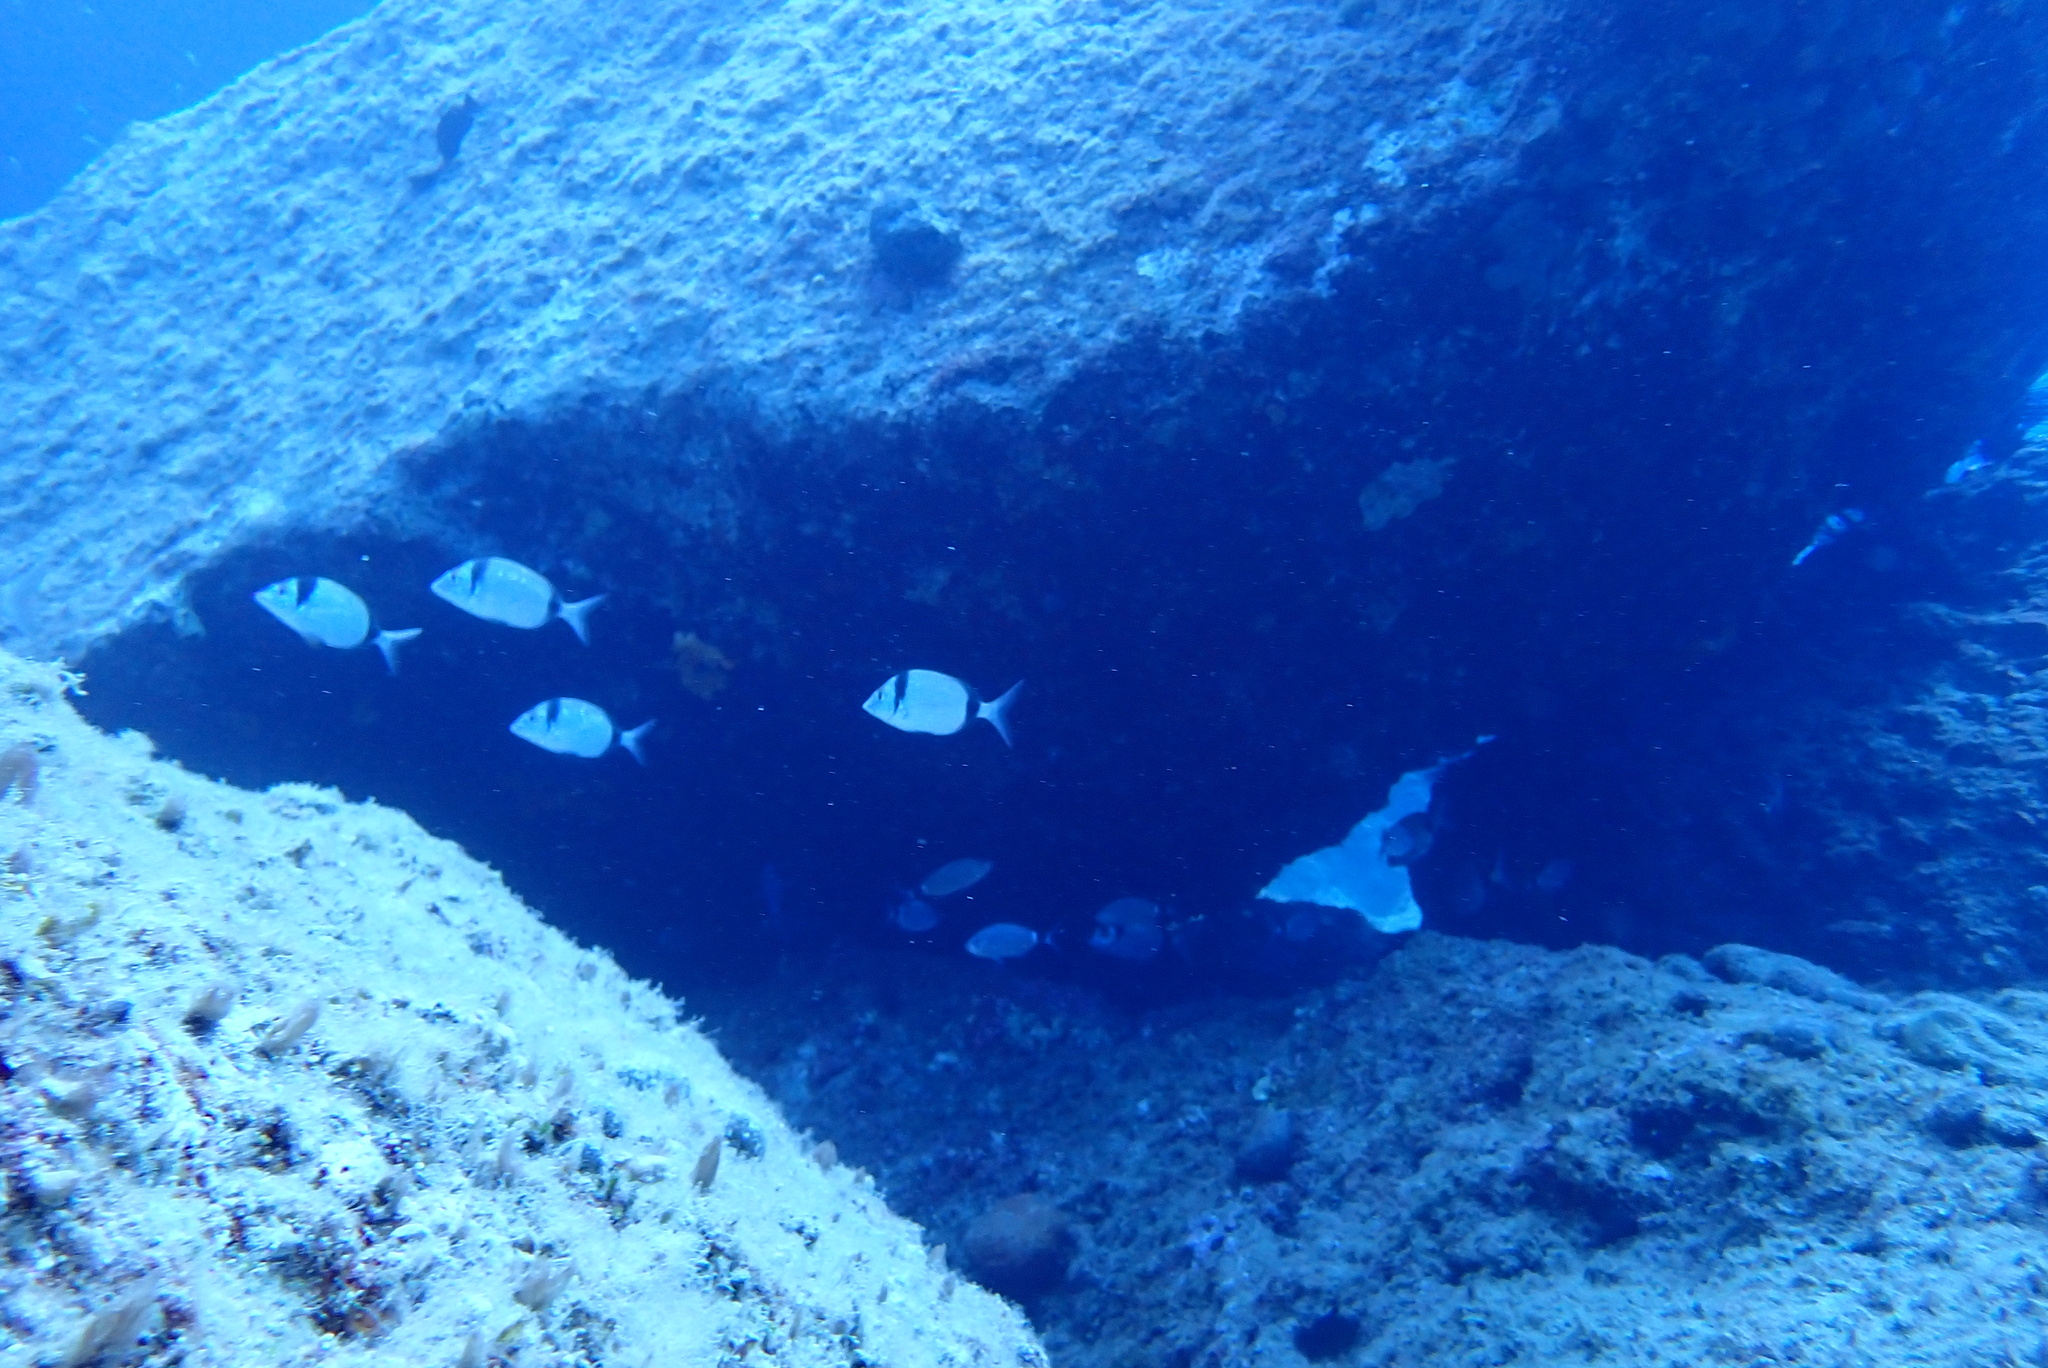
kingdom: Animalia
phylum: Chordata
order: Perciformes
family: Sparidae
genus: Diplodus
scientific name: Diplodus vulgaris
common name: Common two-banded seabream
